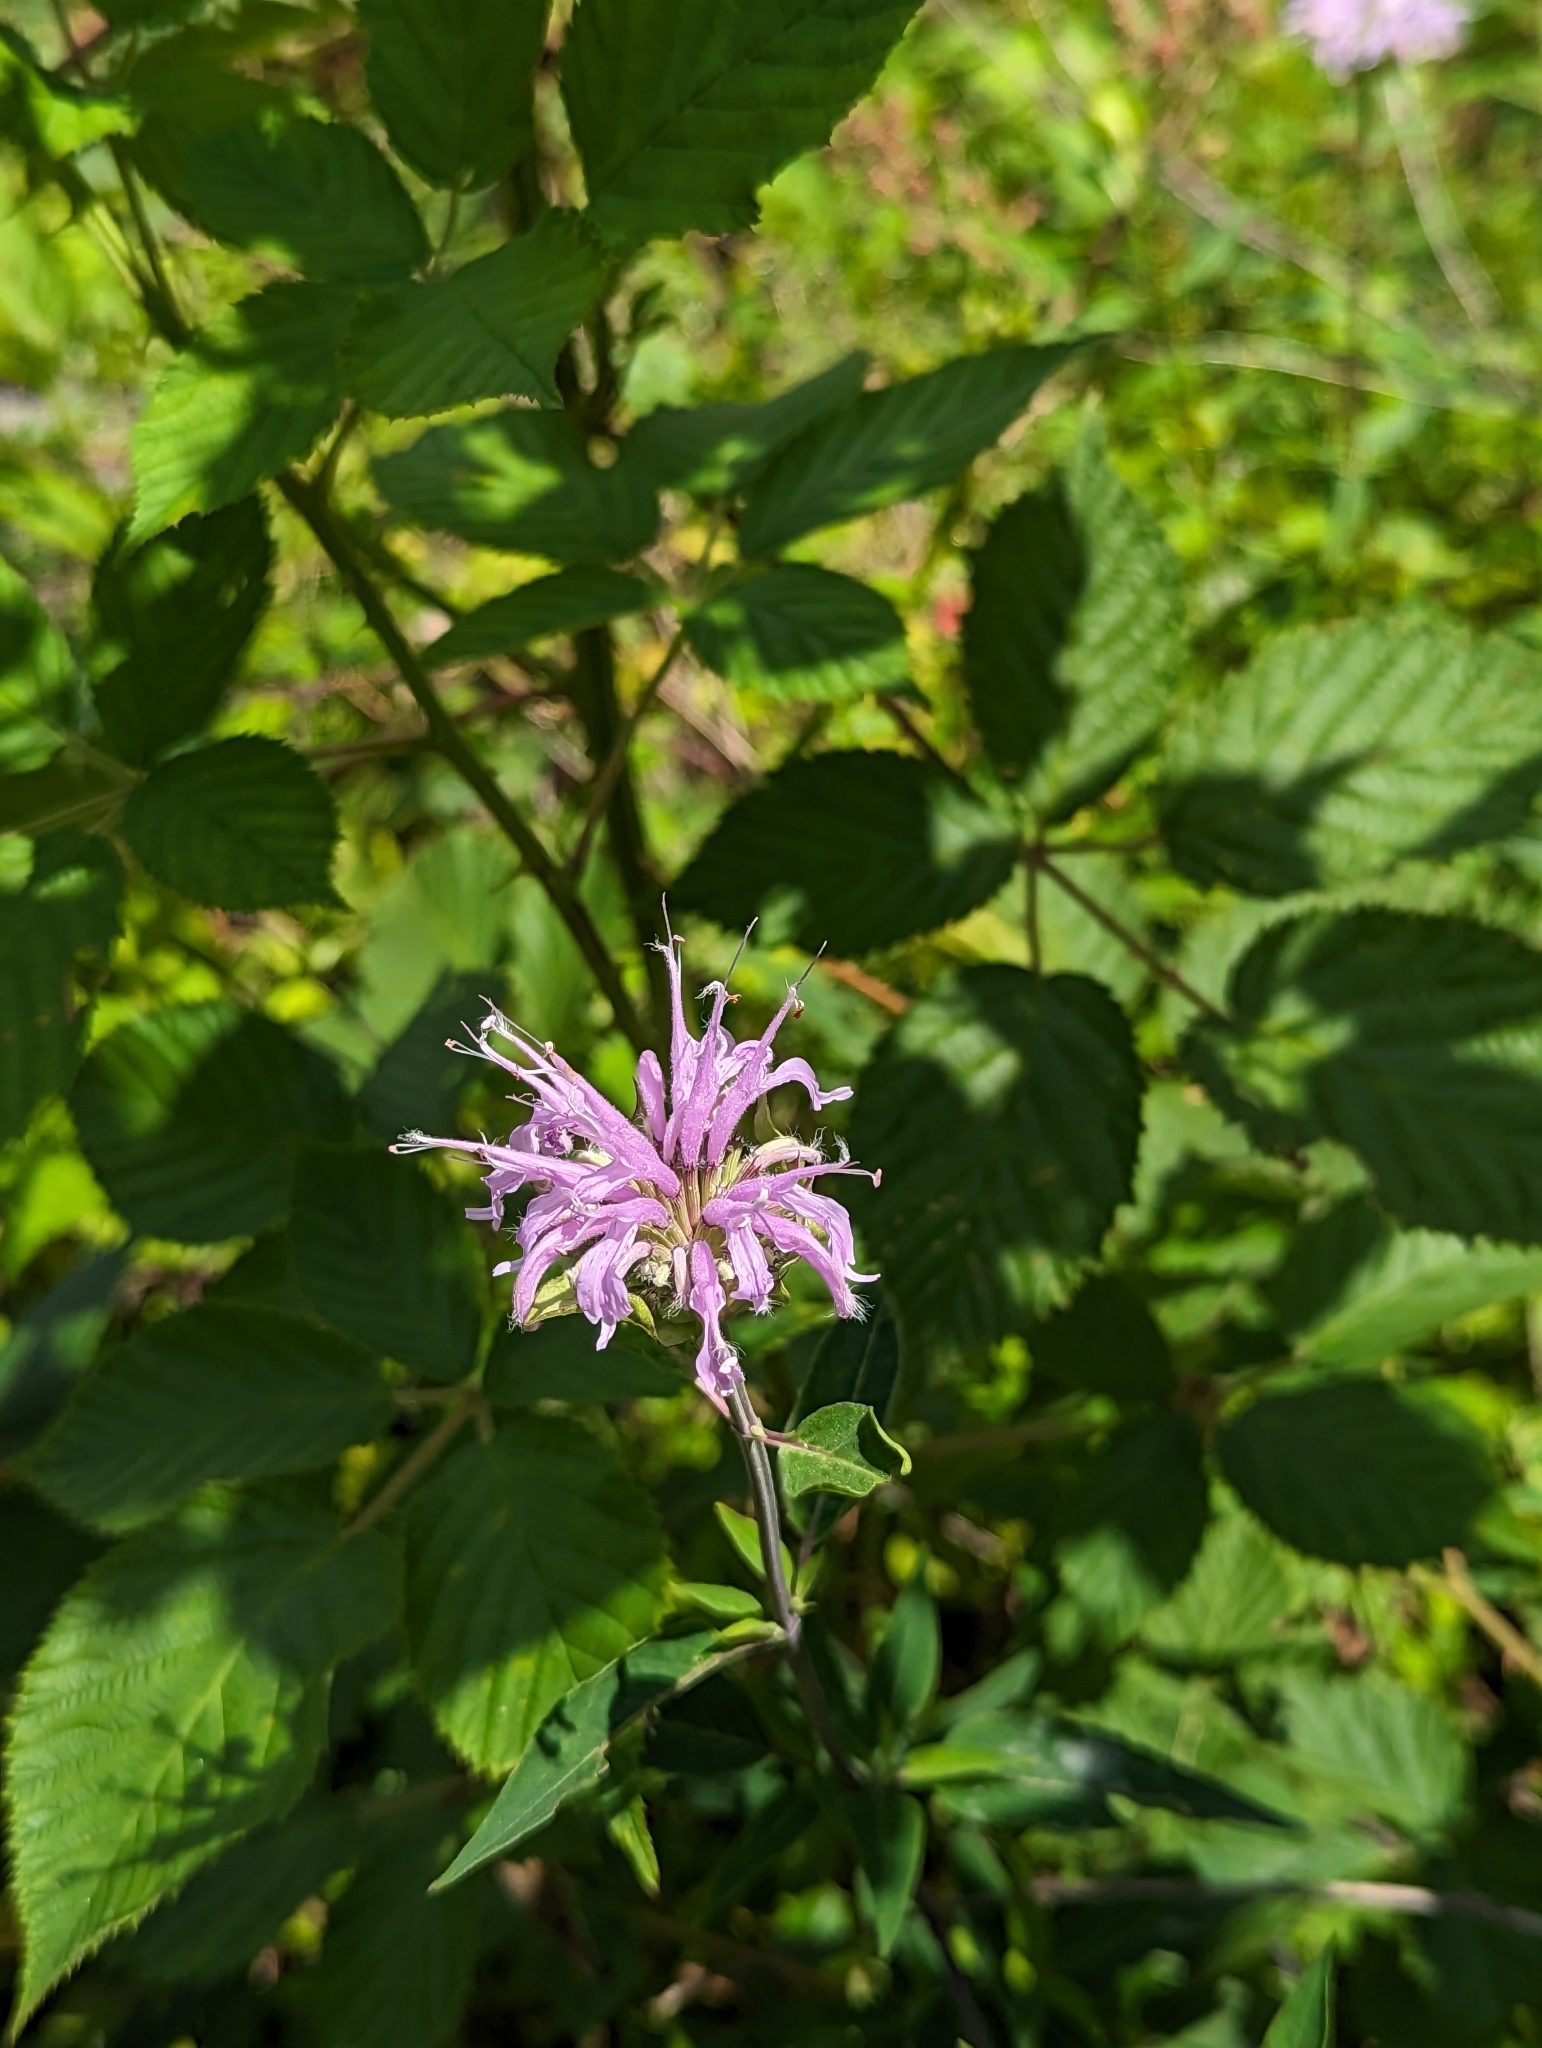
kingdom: Plantae
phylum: Tracheophyta
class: Magnoliopsida
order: Lamiales
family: Lamiaceae
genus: Monarda
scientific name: Monarda fistulosa
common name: Purple beebalm
